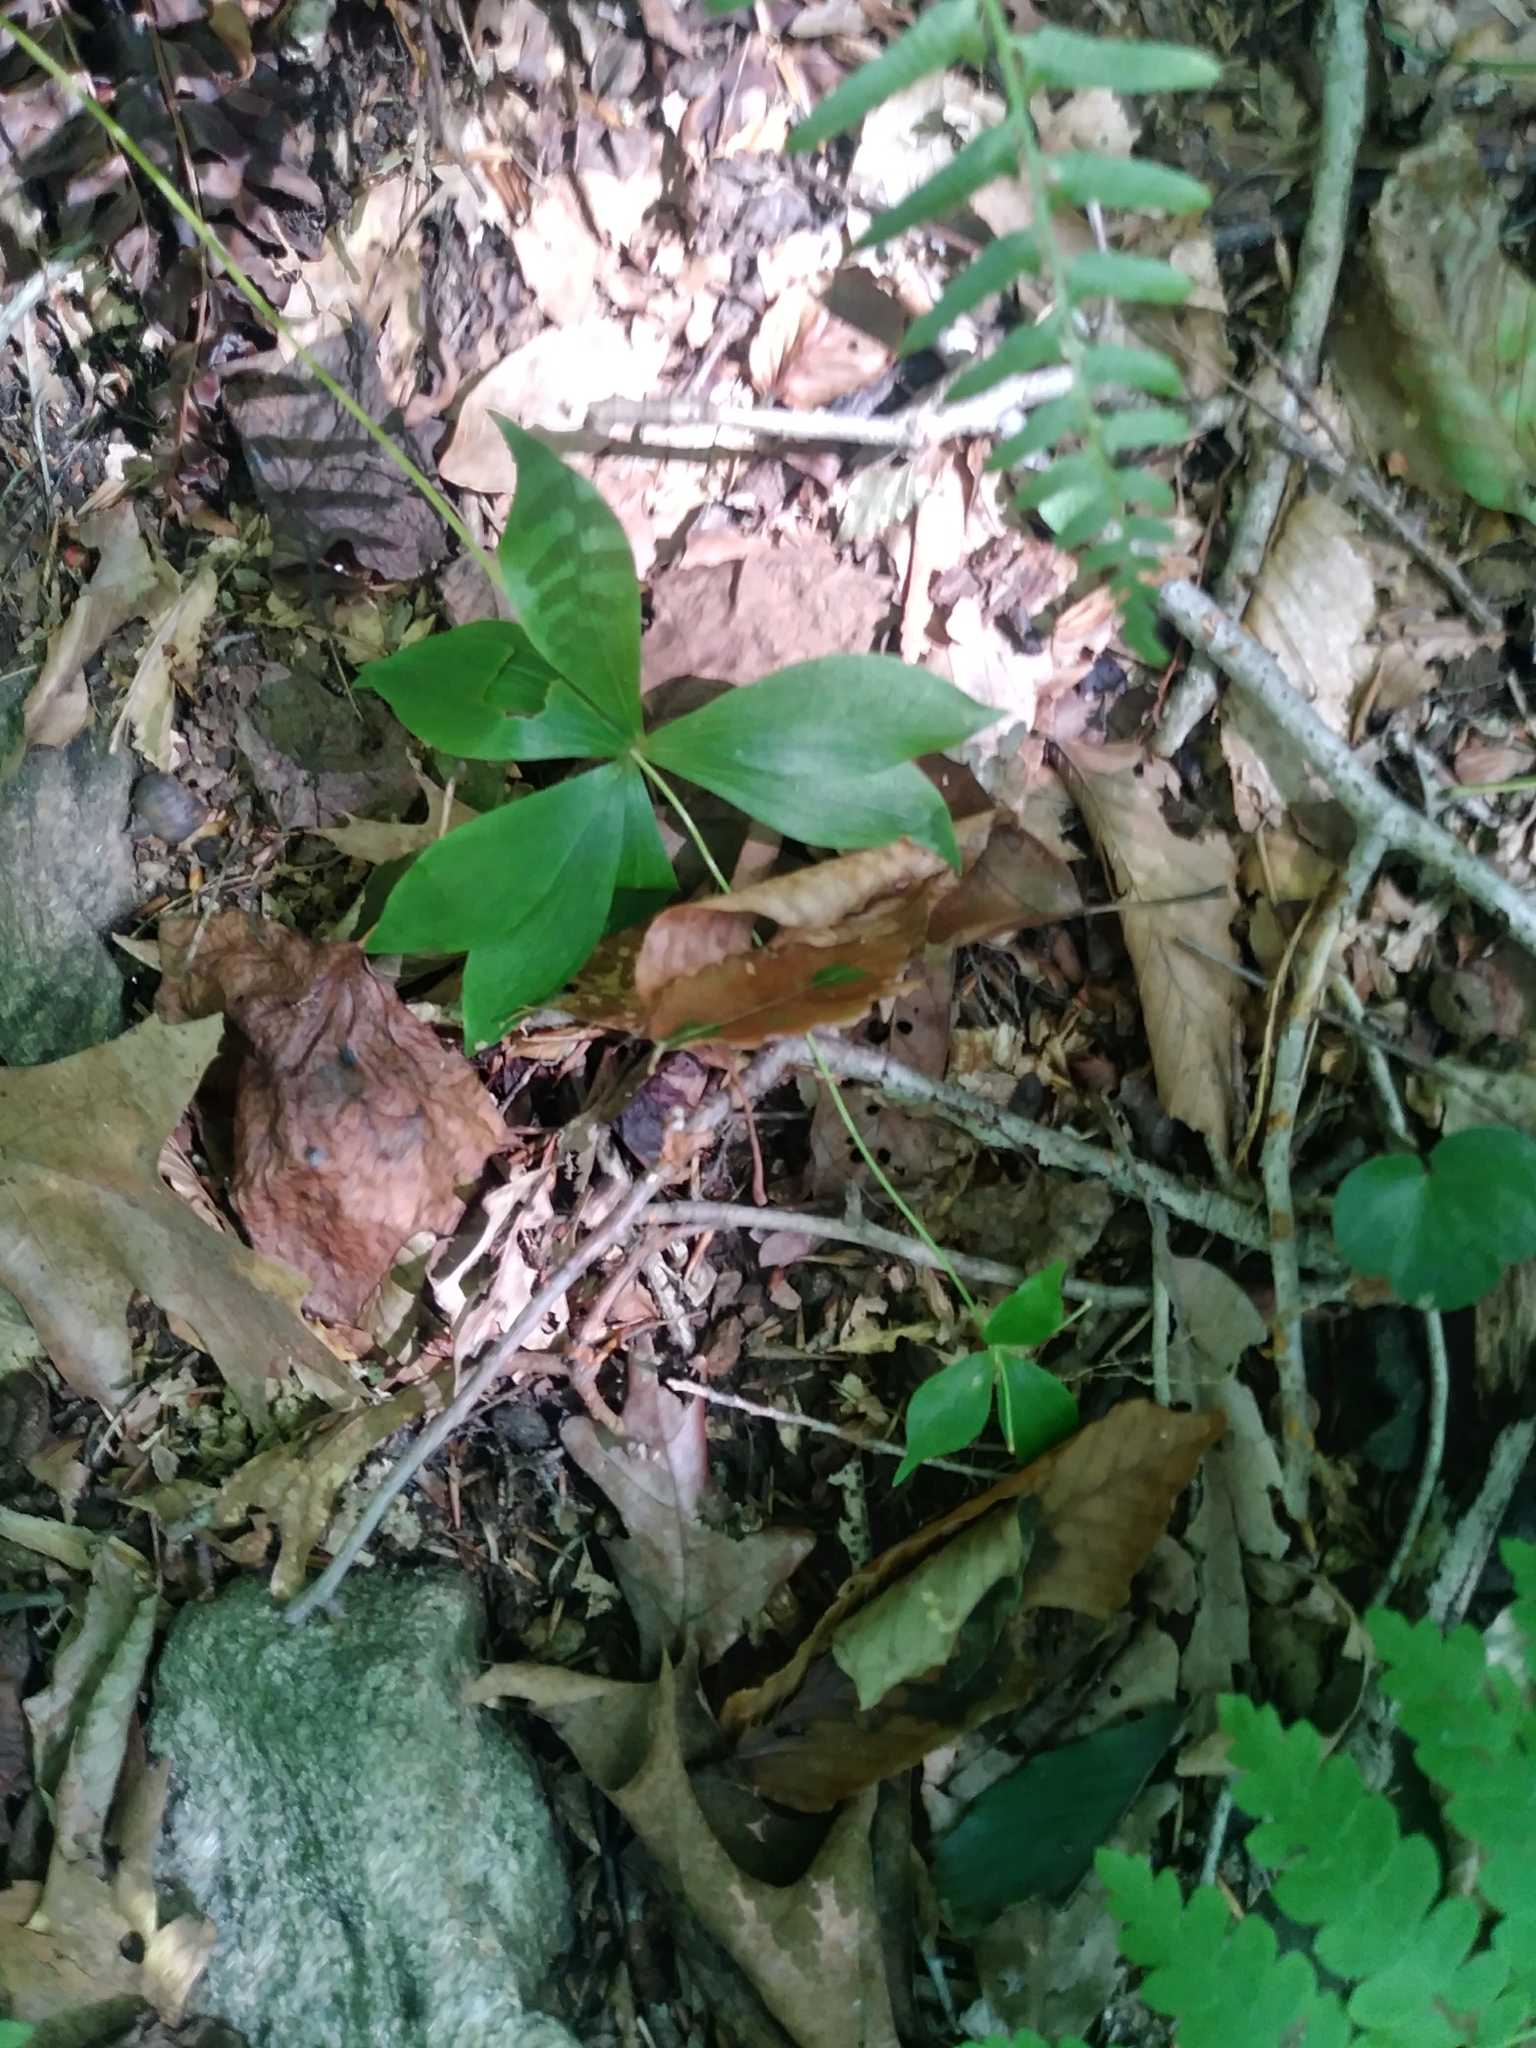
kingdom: Plantae
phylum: Tracheophyta
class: Liliopsida
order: Liliales
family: Liliaceae
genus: Medeola
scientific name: Medeola virginiana
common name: Indian cucumber-root
